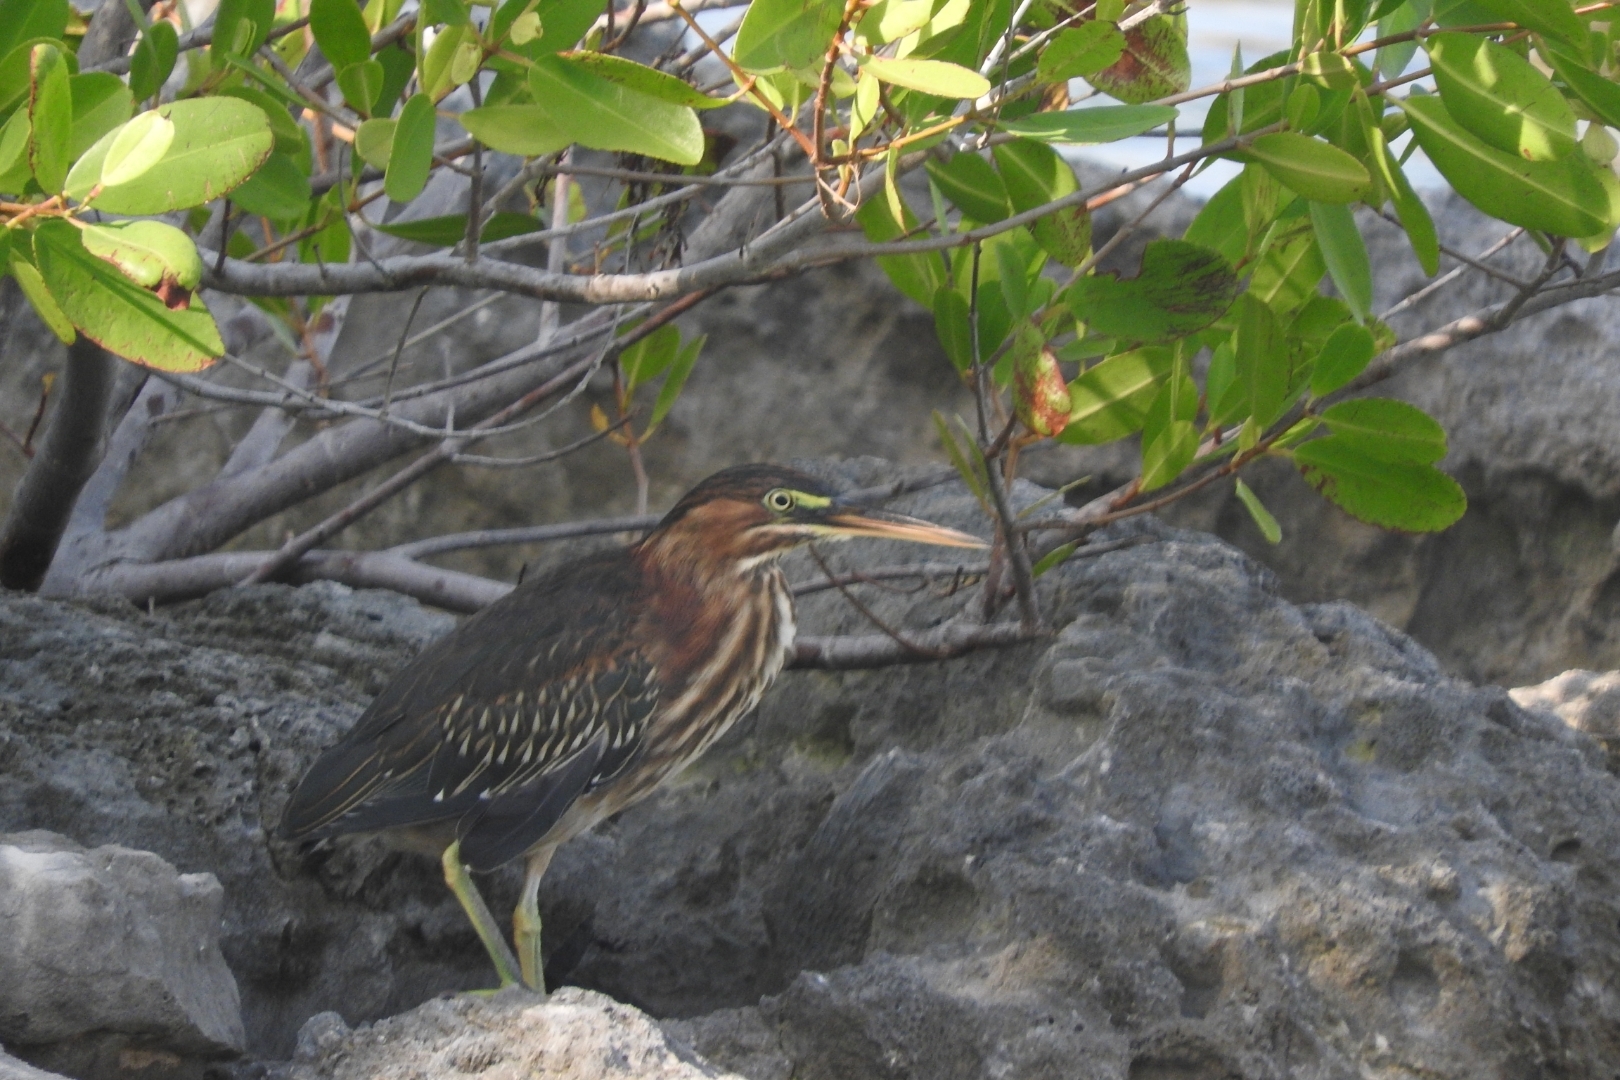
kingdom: Animalia
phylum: Chordata
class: Aves
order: Pelecaniformes
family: Ardeidae
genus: Butorides
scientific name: Butorides virescens
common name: Green heron
